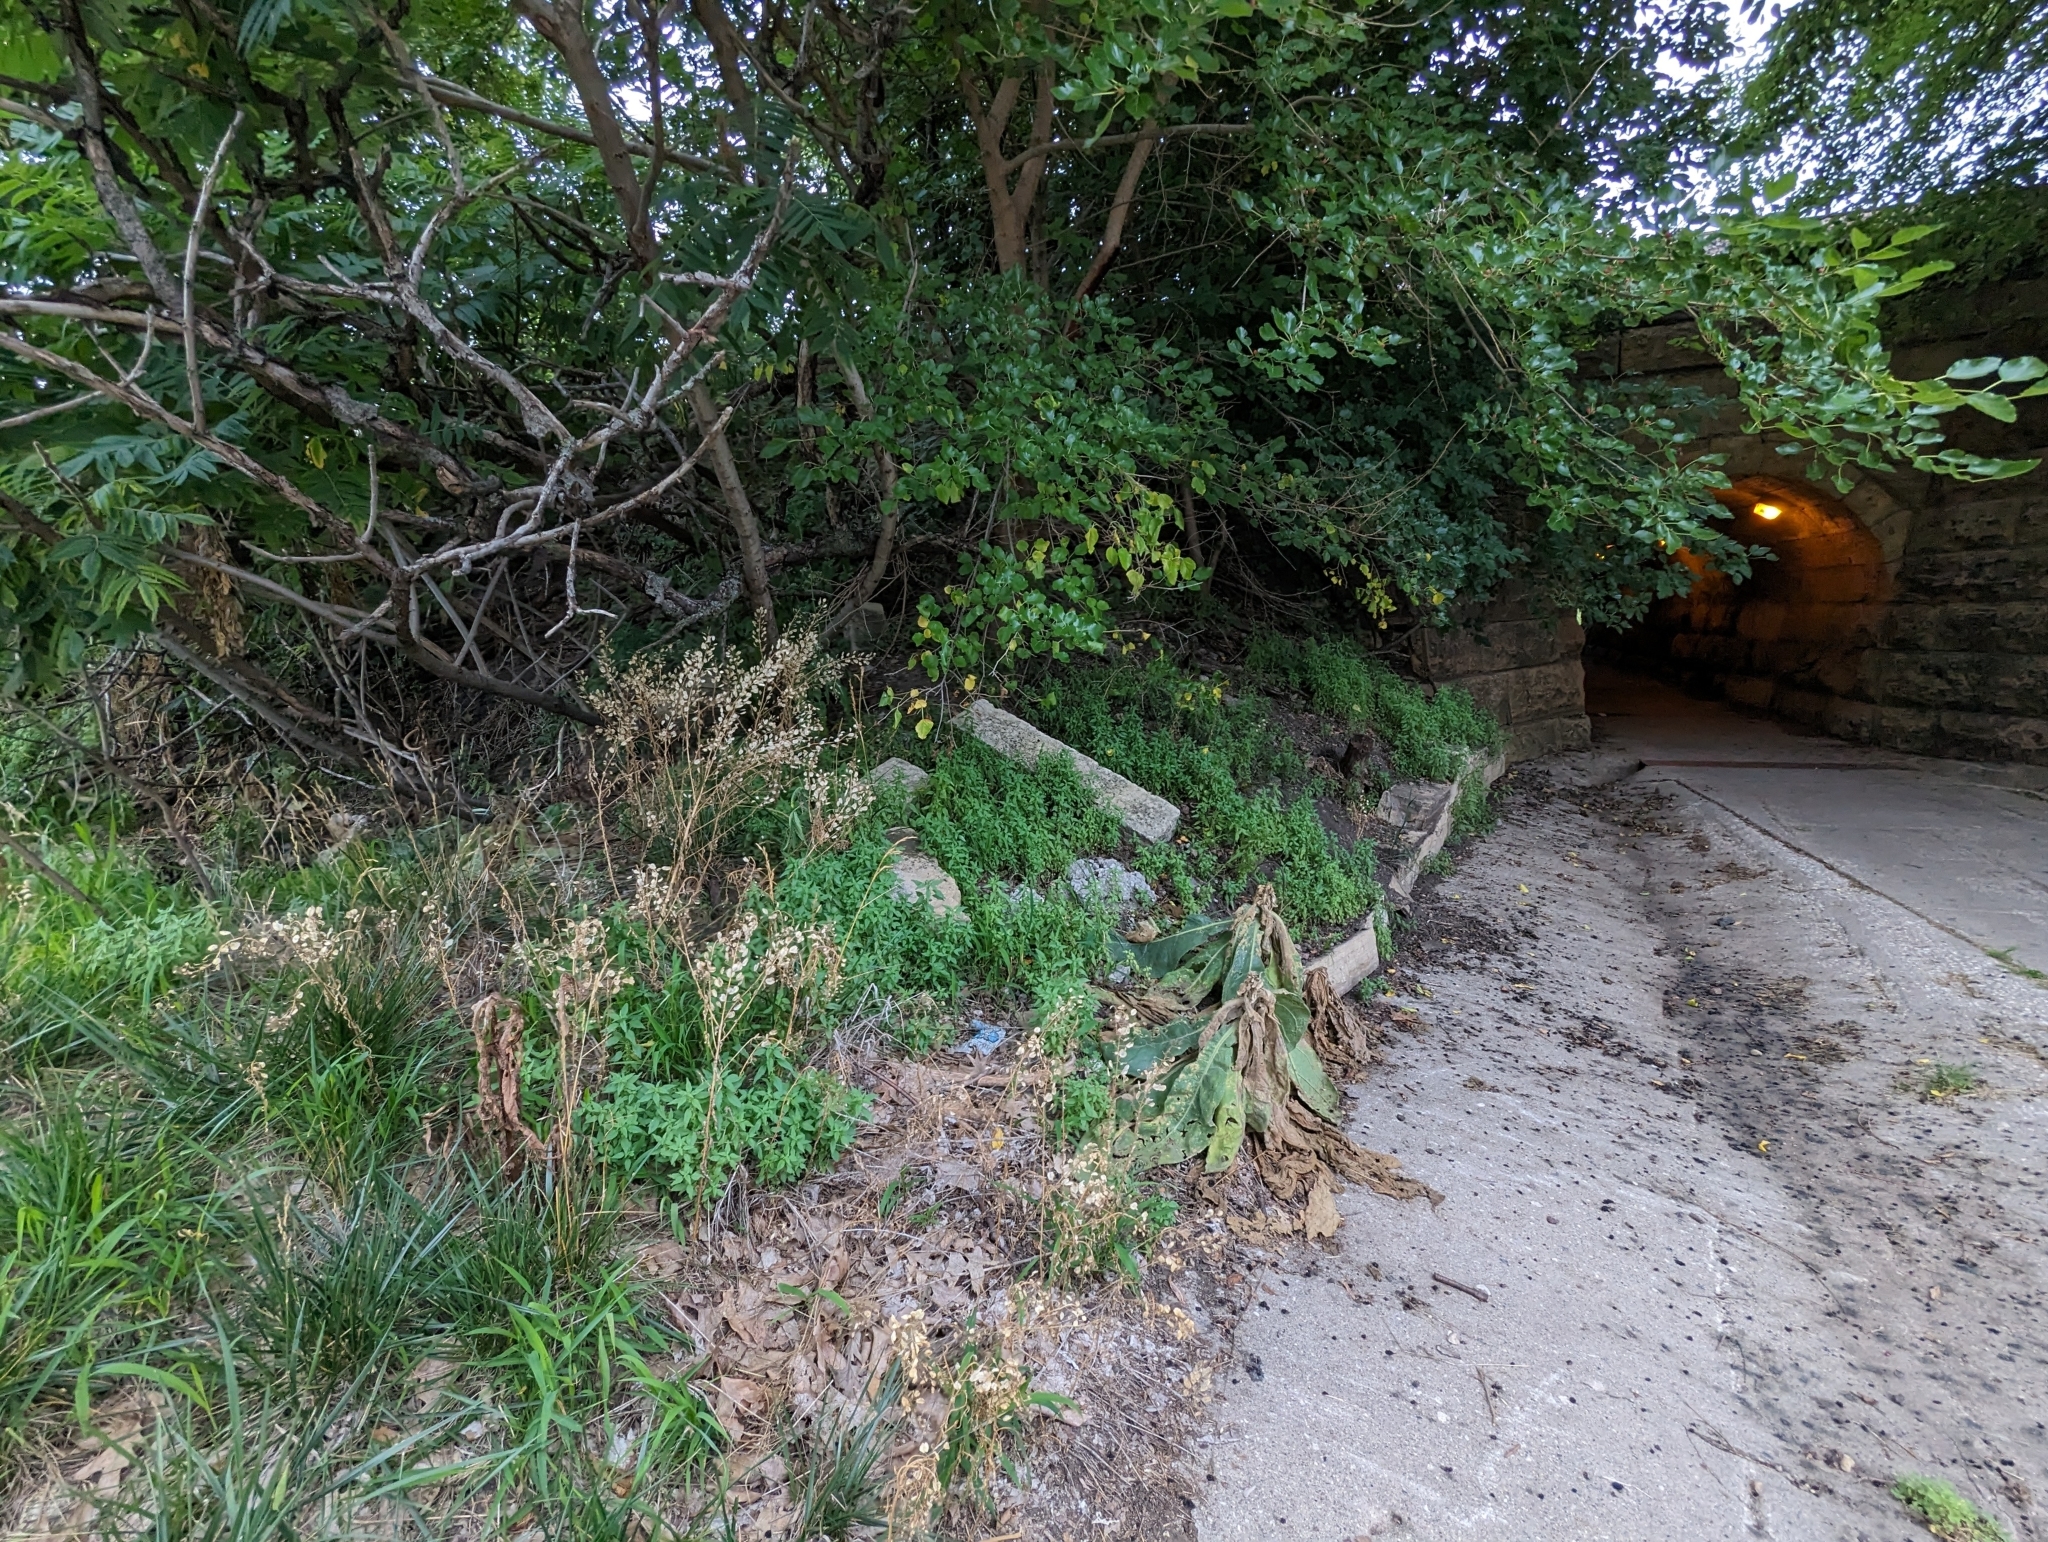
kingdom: Plantae
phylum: Tracheophyta
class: Magnoliopsida
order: Brassicales
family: Brassicaceae
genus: Thlaspi
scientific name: Thlaspi arvense
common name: Field pennycress
